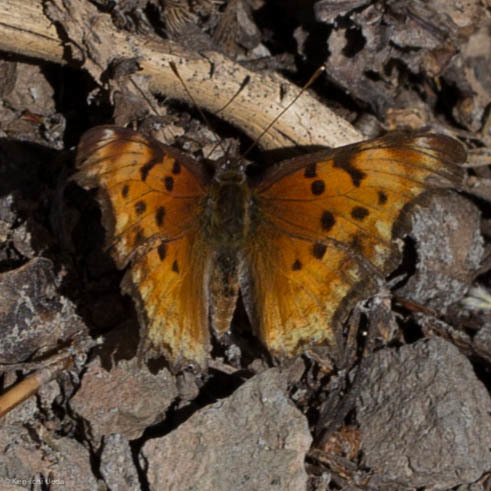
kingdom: Animalia
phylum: Arthropoda
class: Insecta
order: Lepidoptera
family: Nymphalidae
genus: Polygonia
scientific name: Polygonia gracilis
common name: Hoary comma
